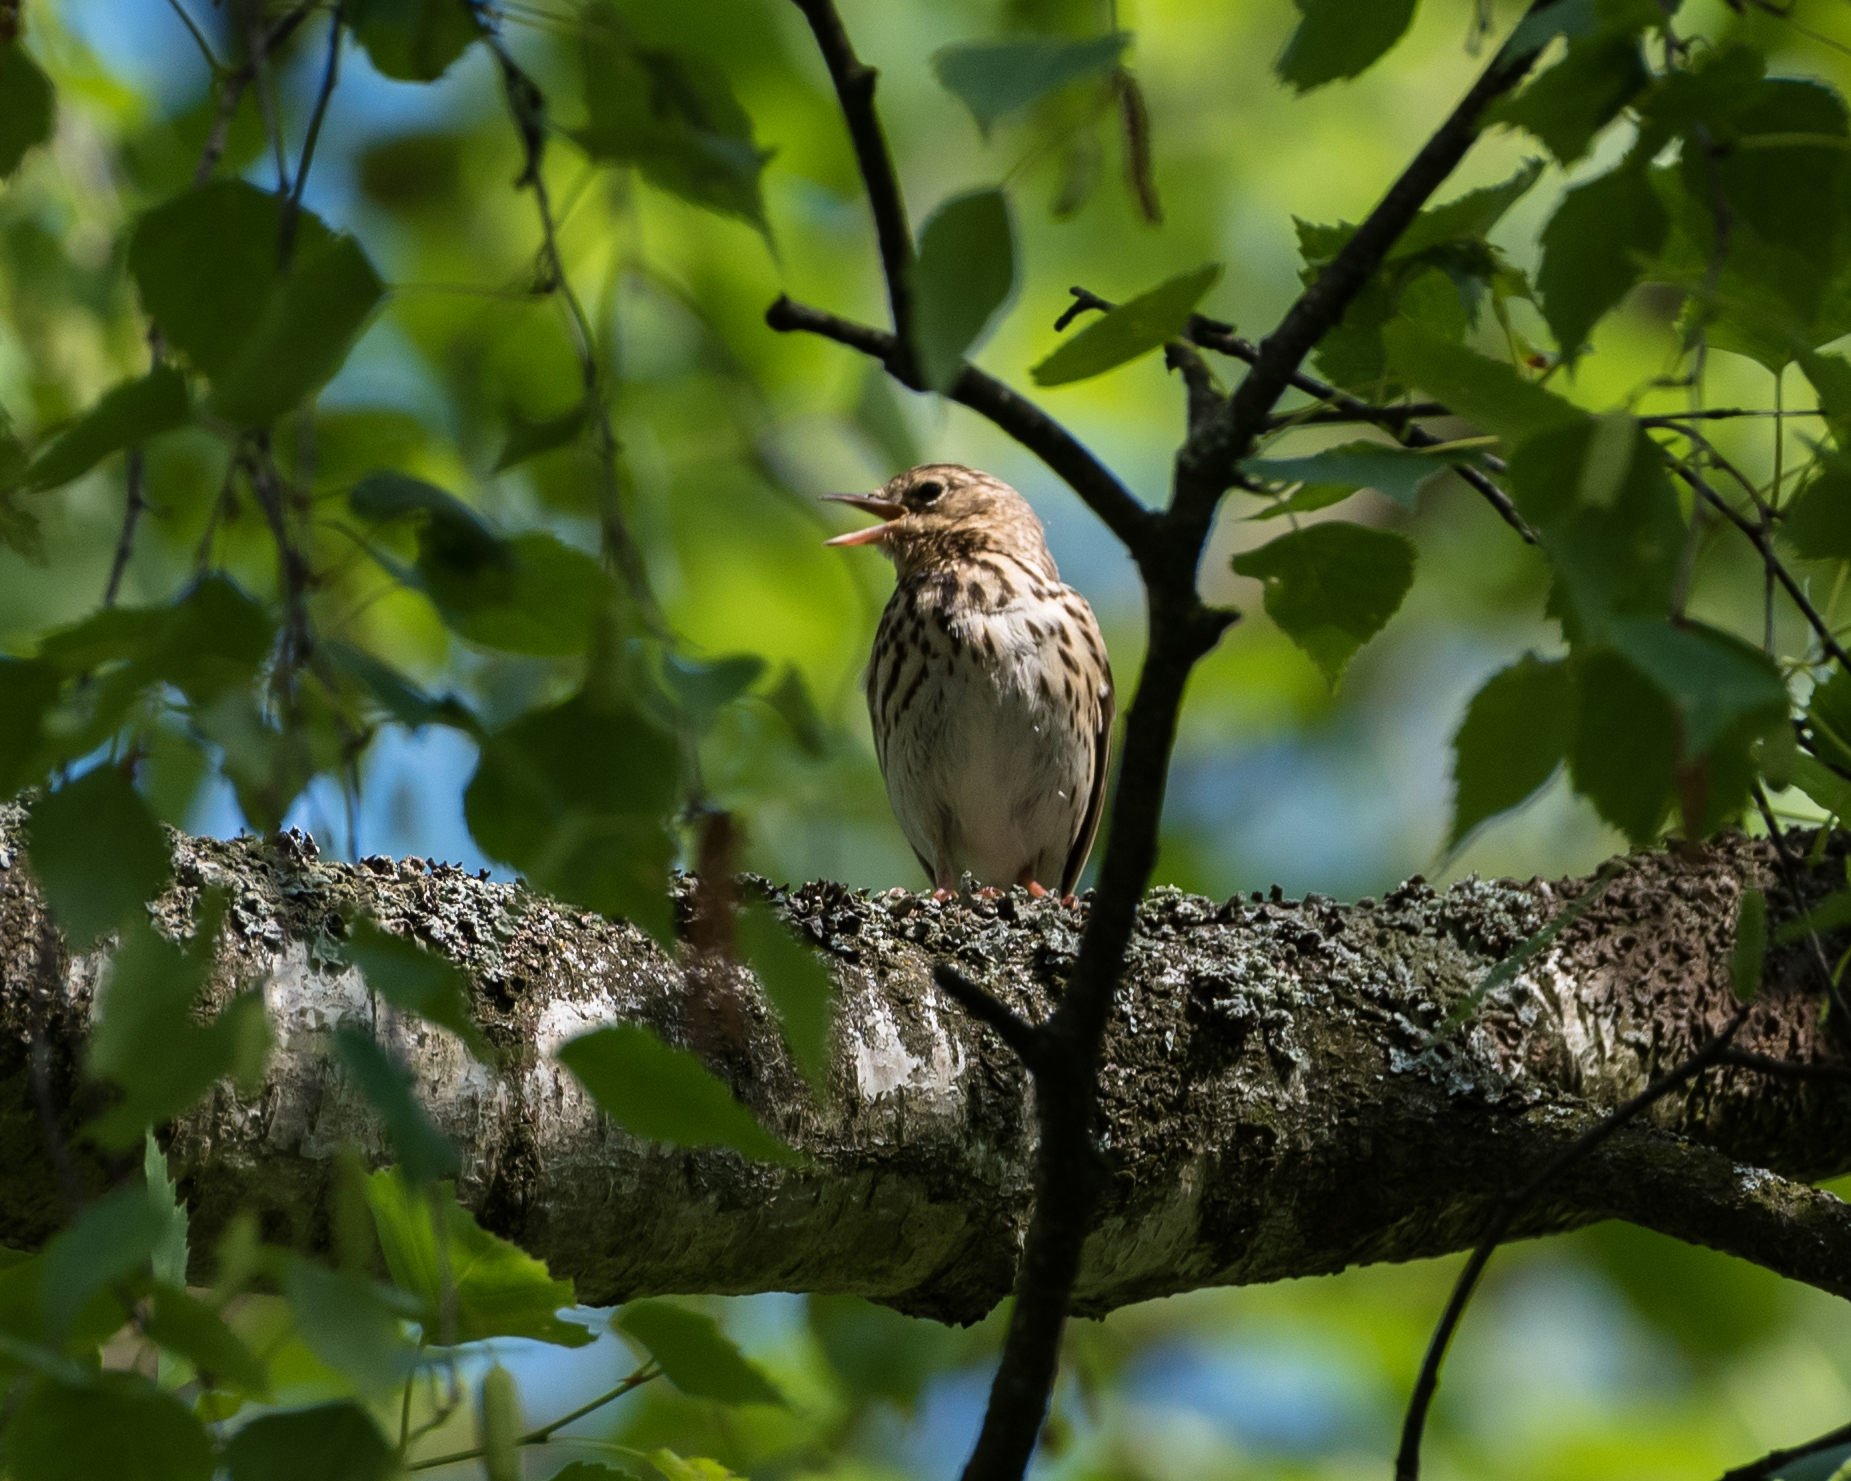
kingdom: Animalia
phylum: Chordata
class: Aves
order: Passeriformes
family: Motacillidae
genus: Anthus
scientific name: Anthus trivialis
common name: Tree pipit
